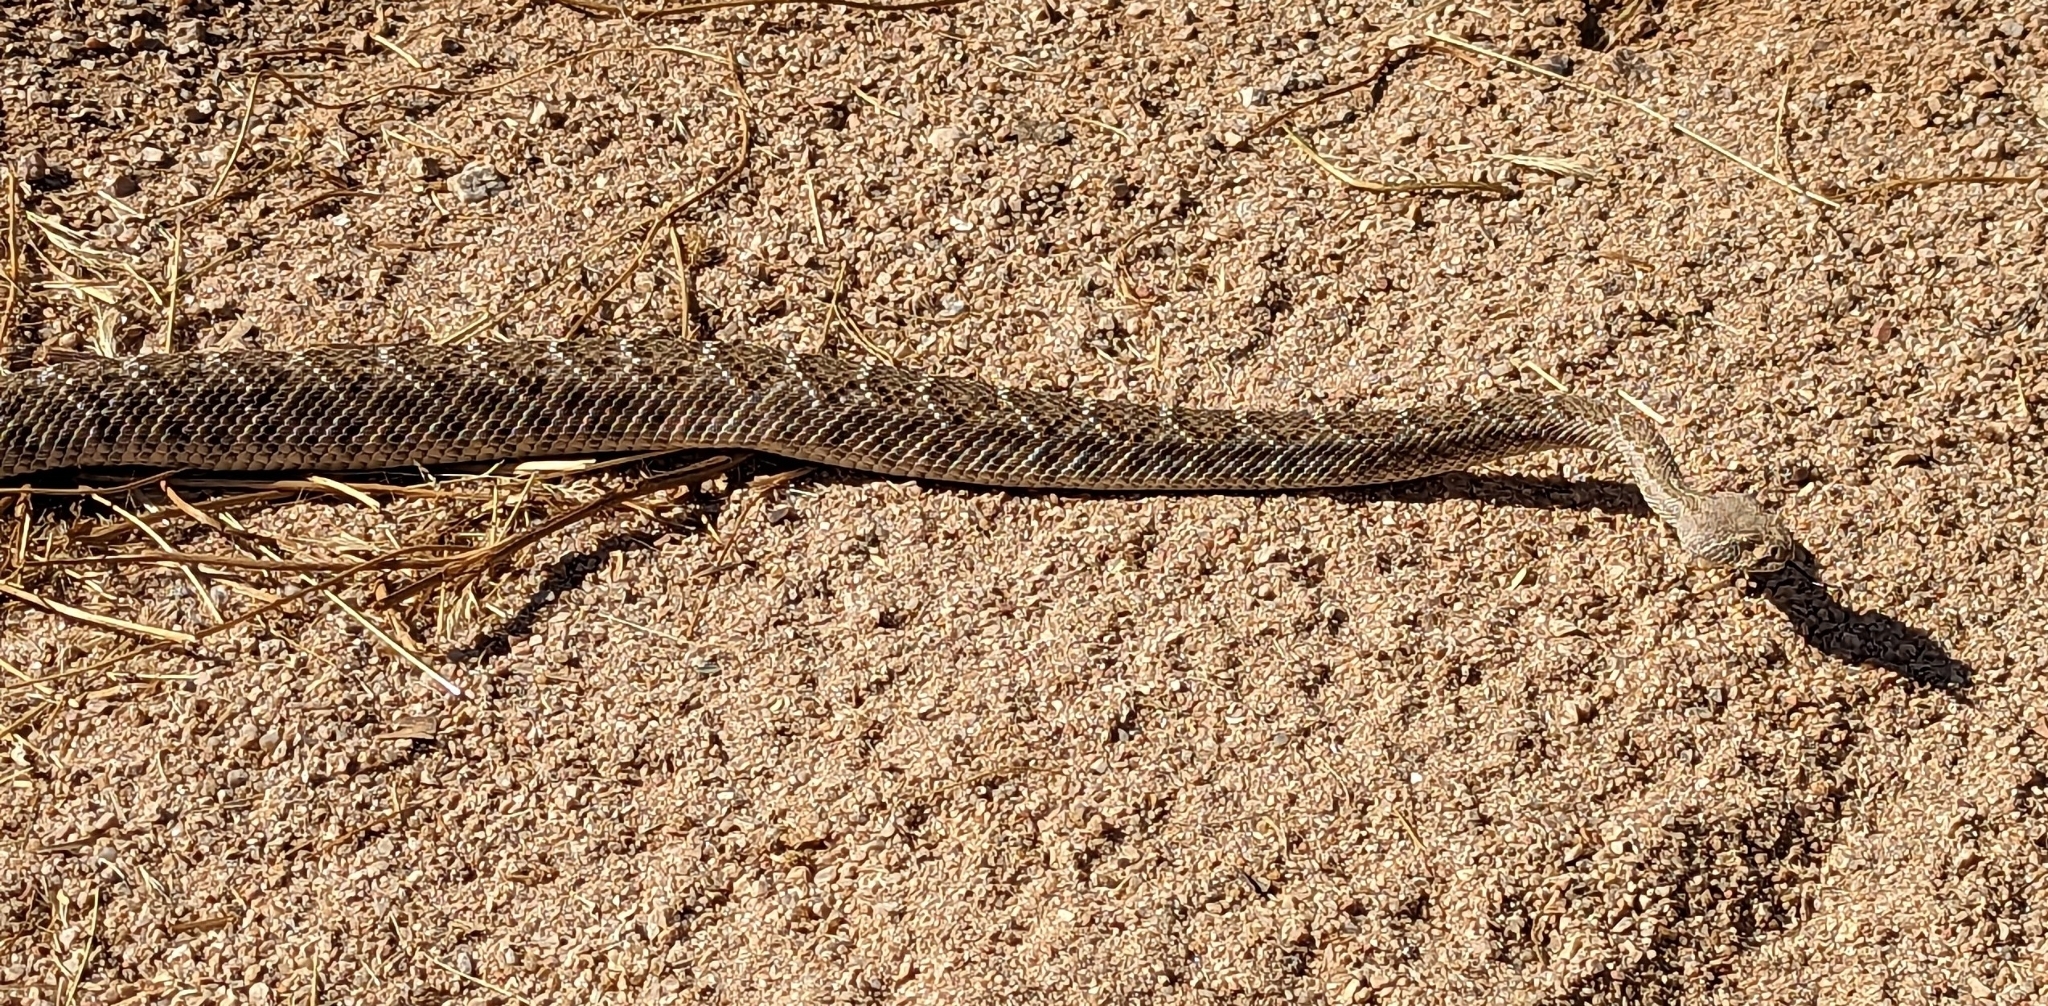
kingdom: Animalia
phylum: Chordata
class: Squamata
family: Viperidae
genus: Crotalus
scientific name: Crotalus atrox
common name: Western diamond-backed rattlesnake
